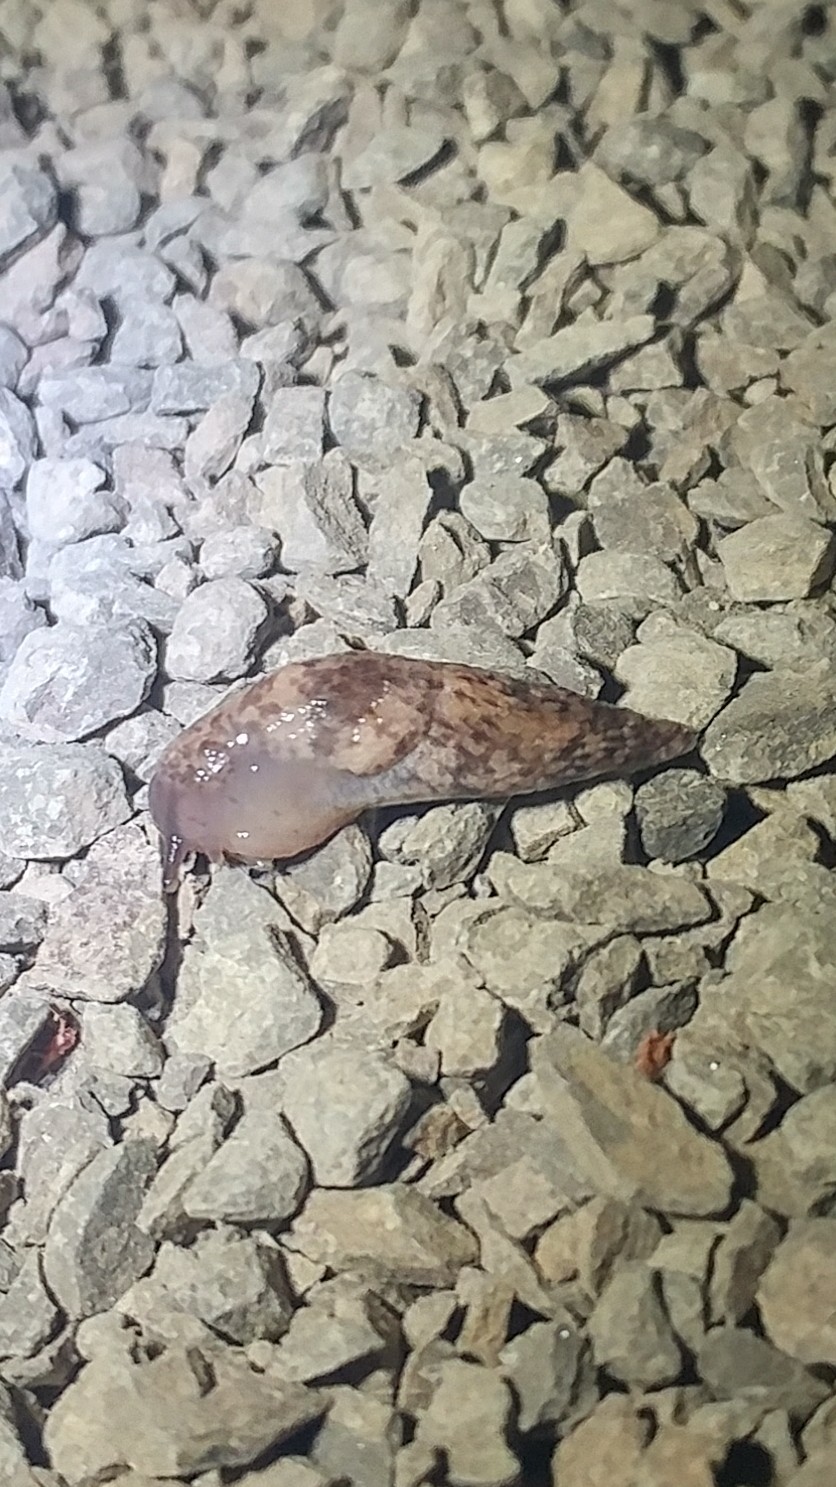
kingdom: Animalia
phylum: Mollusca
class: Gastropoda
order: Stylommatophora
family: Agriolimacidae
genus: Deroceras
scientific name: Deroceras reticulatum
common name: Gray field slug
